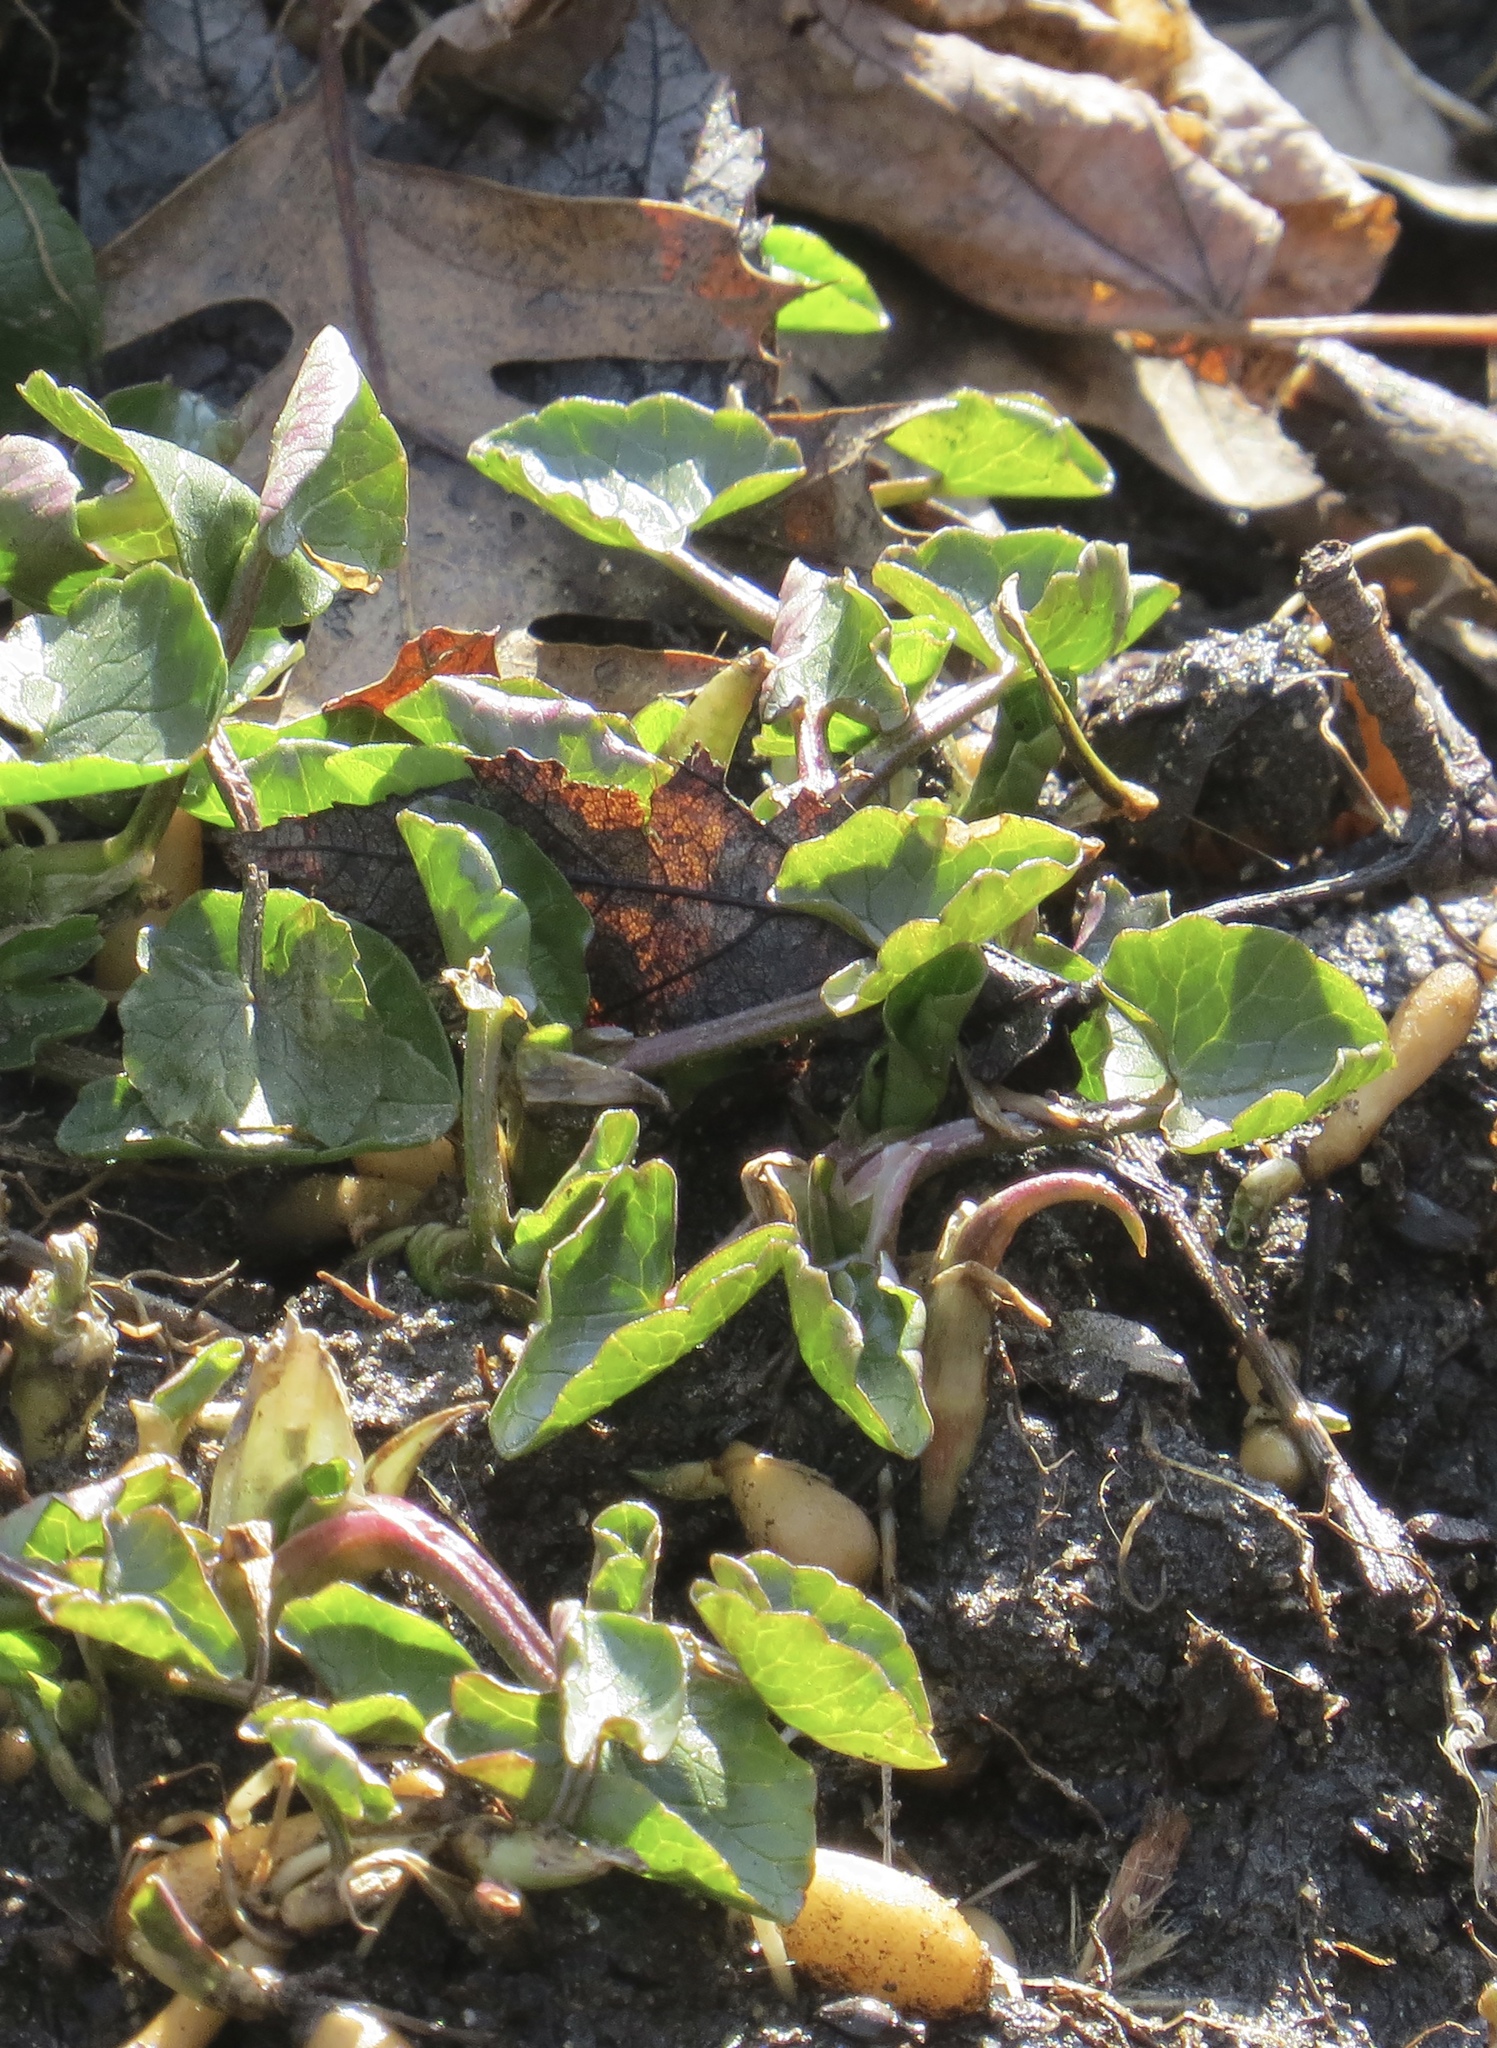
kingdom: Plantae
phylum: Tracheophyta
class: Magnoliopsida
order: Ranunculales
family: Ranunculaceae
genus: Ficaria
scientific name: Ficaria verna
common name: Lesser celandine
